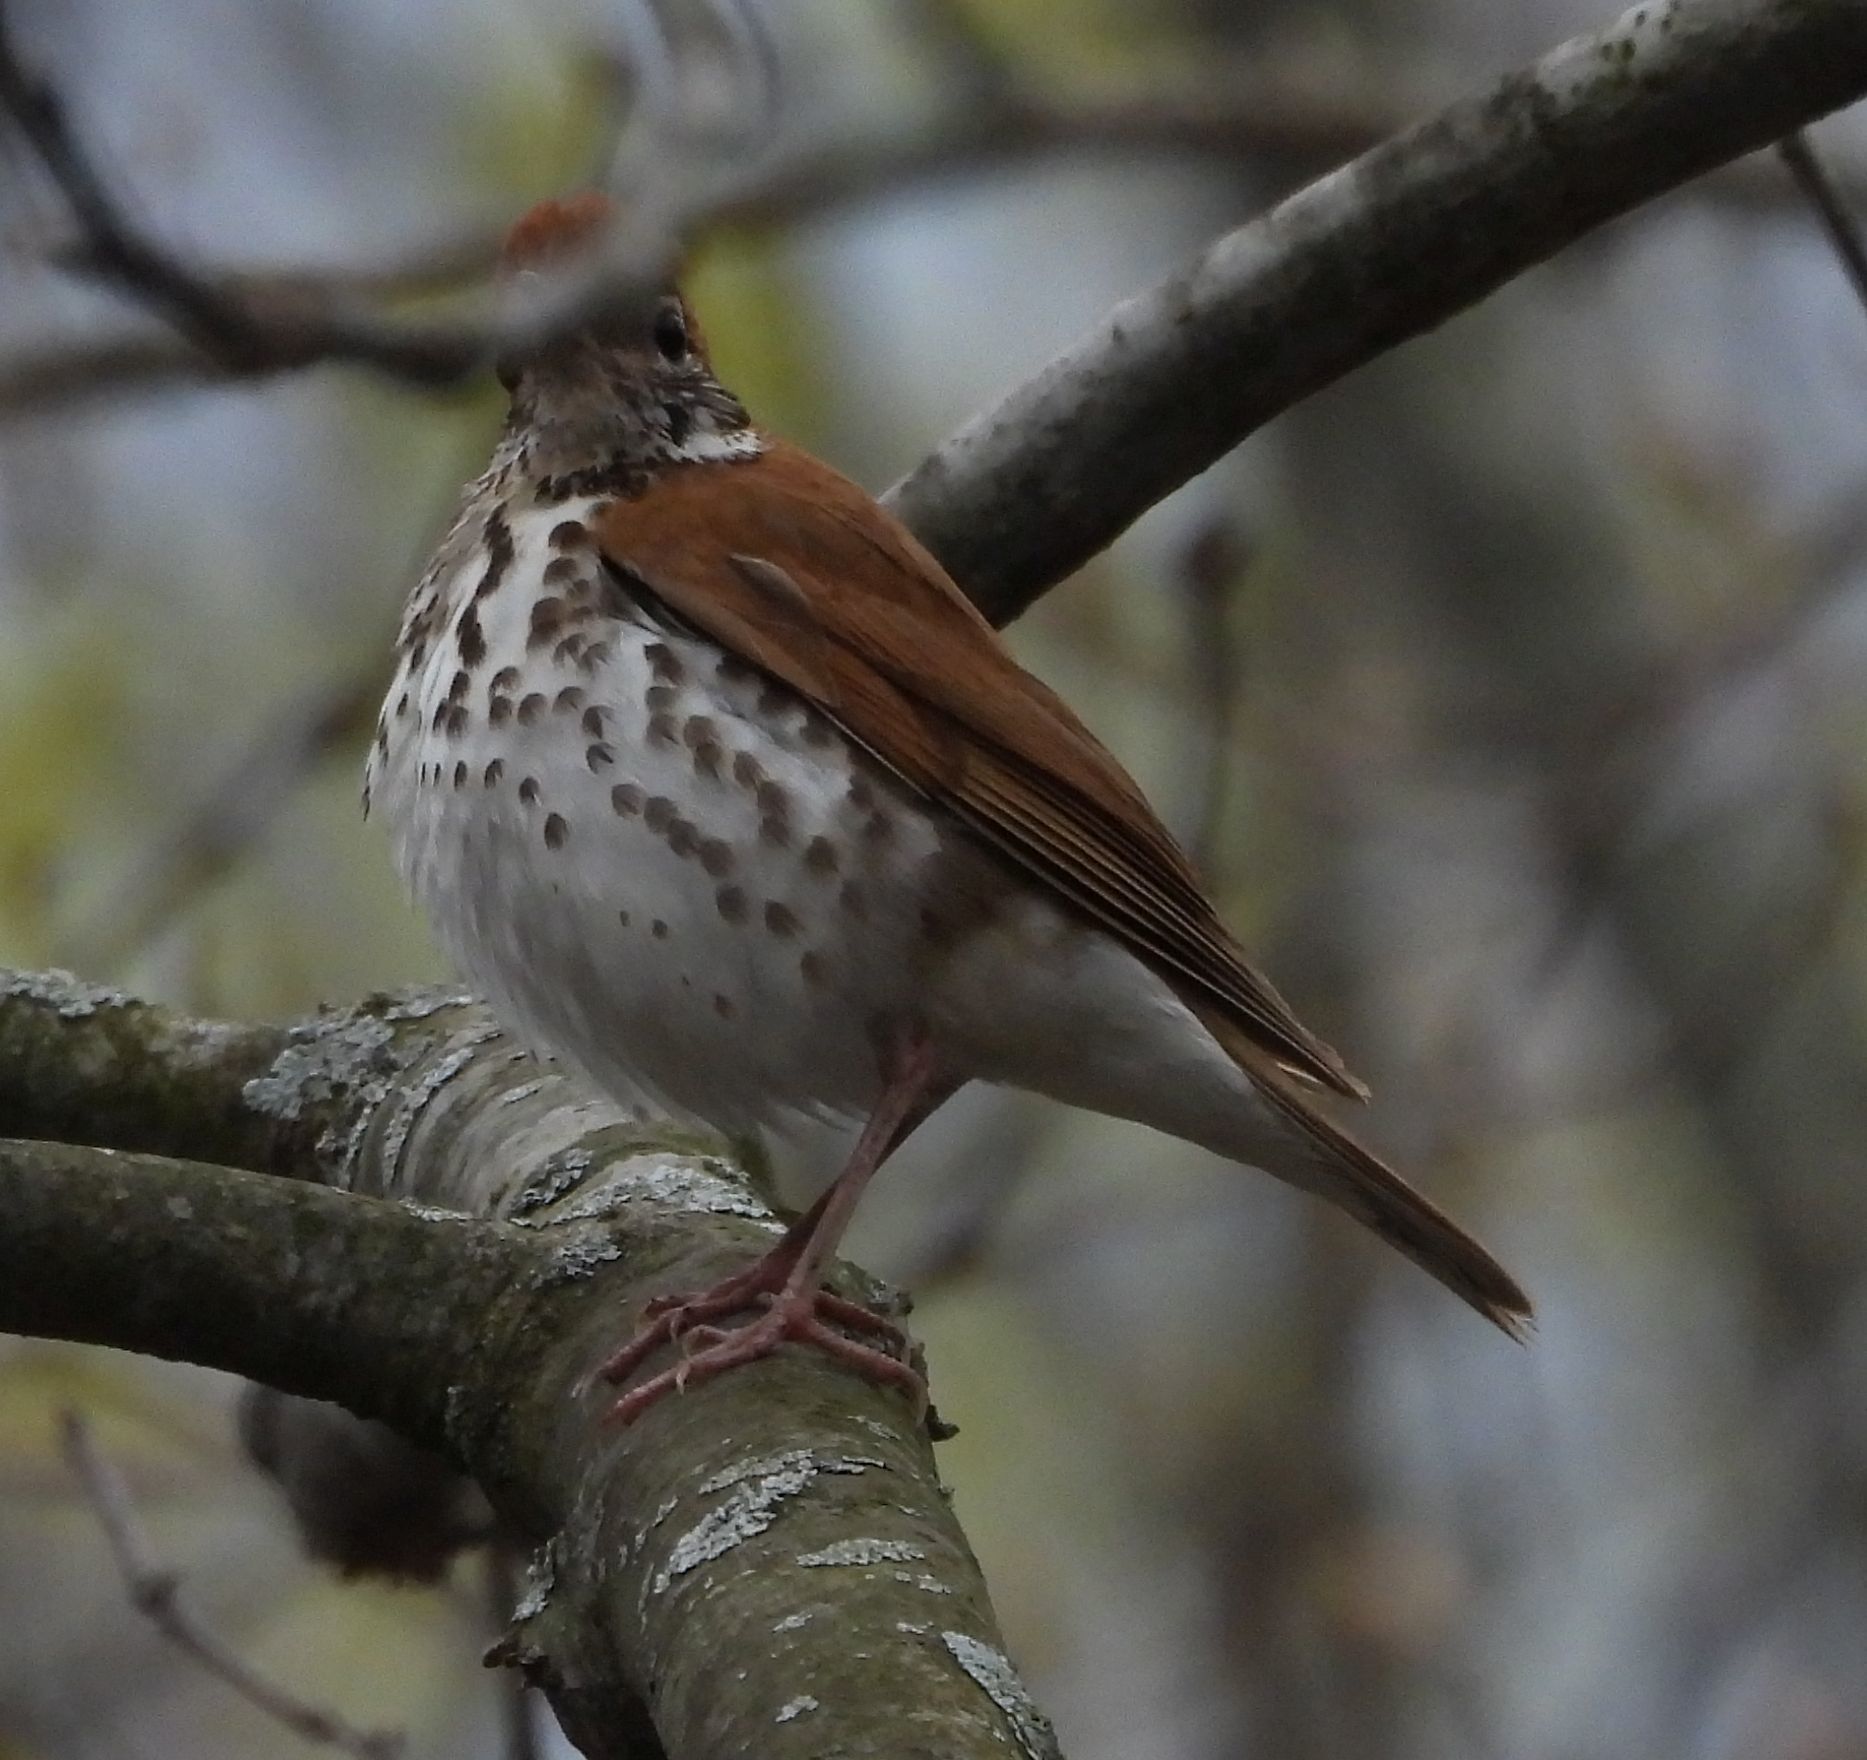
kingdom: Animalia
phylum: Chordata
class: Aves
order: Passeriformes
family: Turdidae
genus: Hylocichla
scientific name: Hylocichla mustelina
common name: Wood thrush
